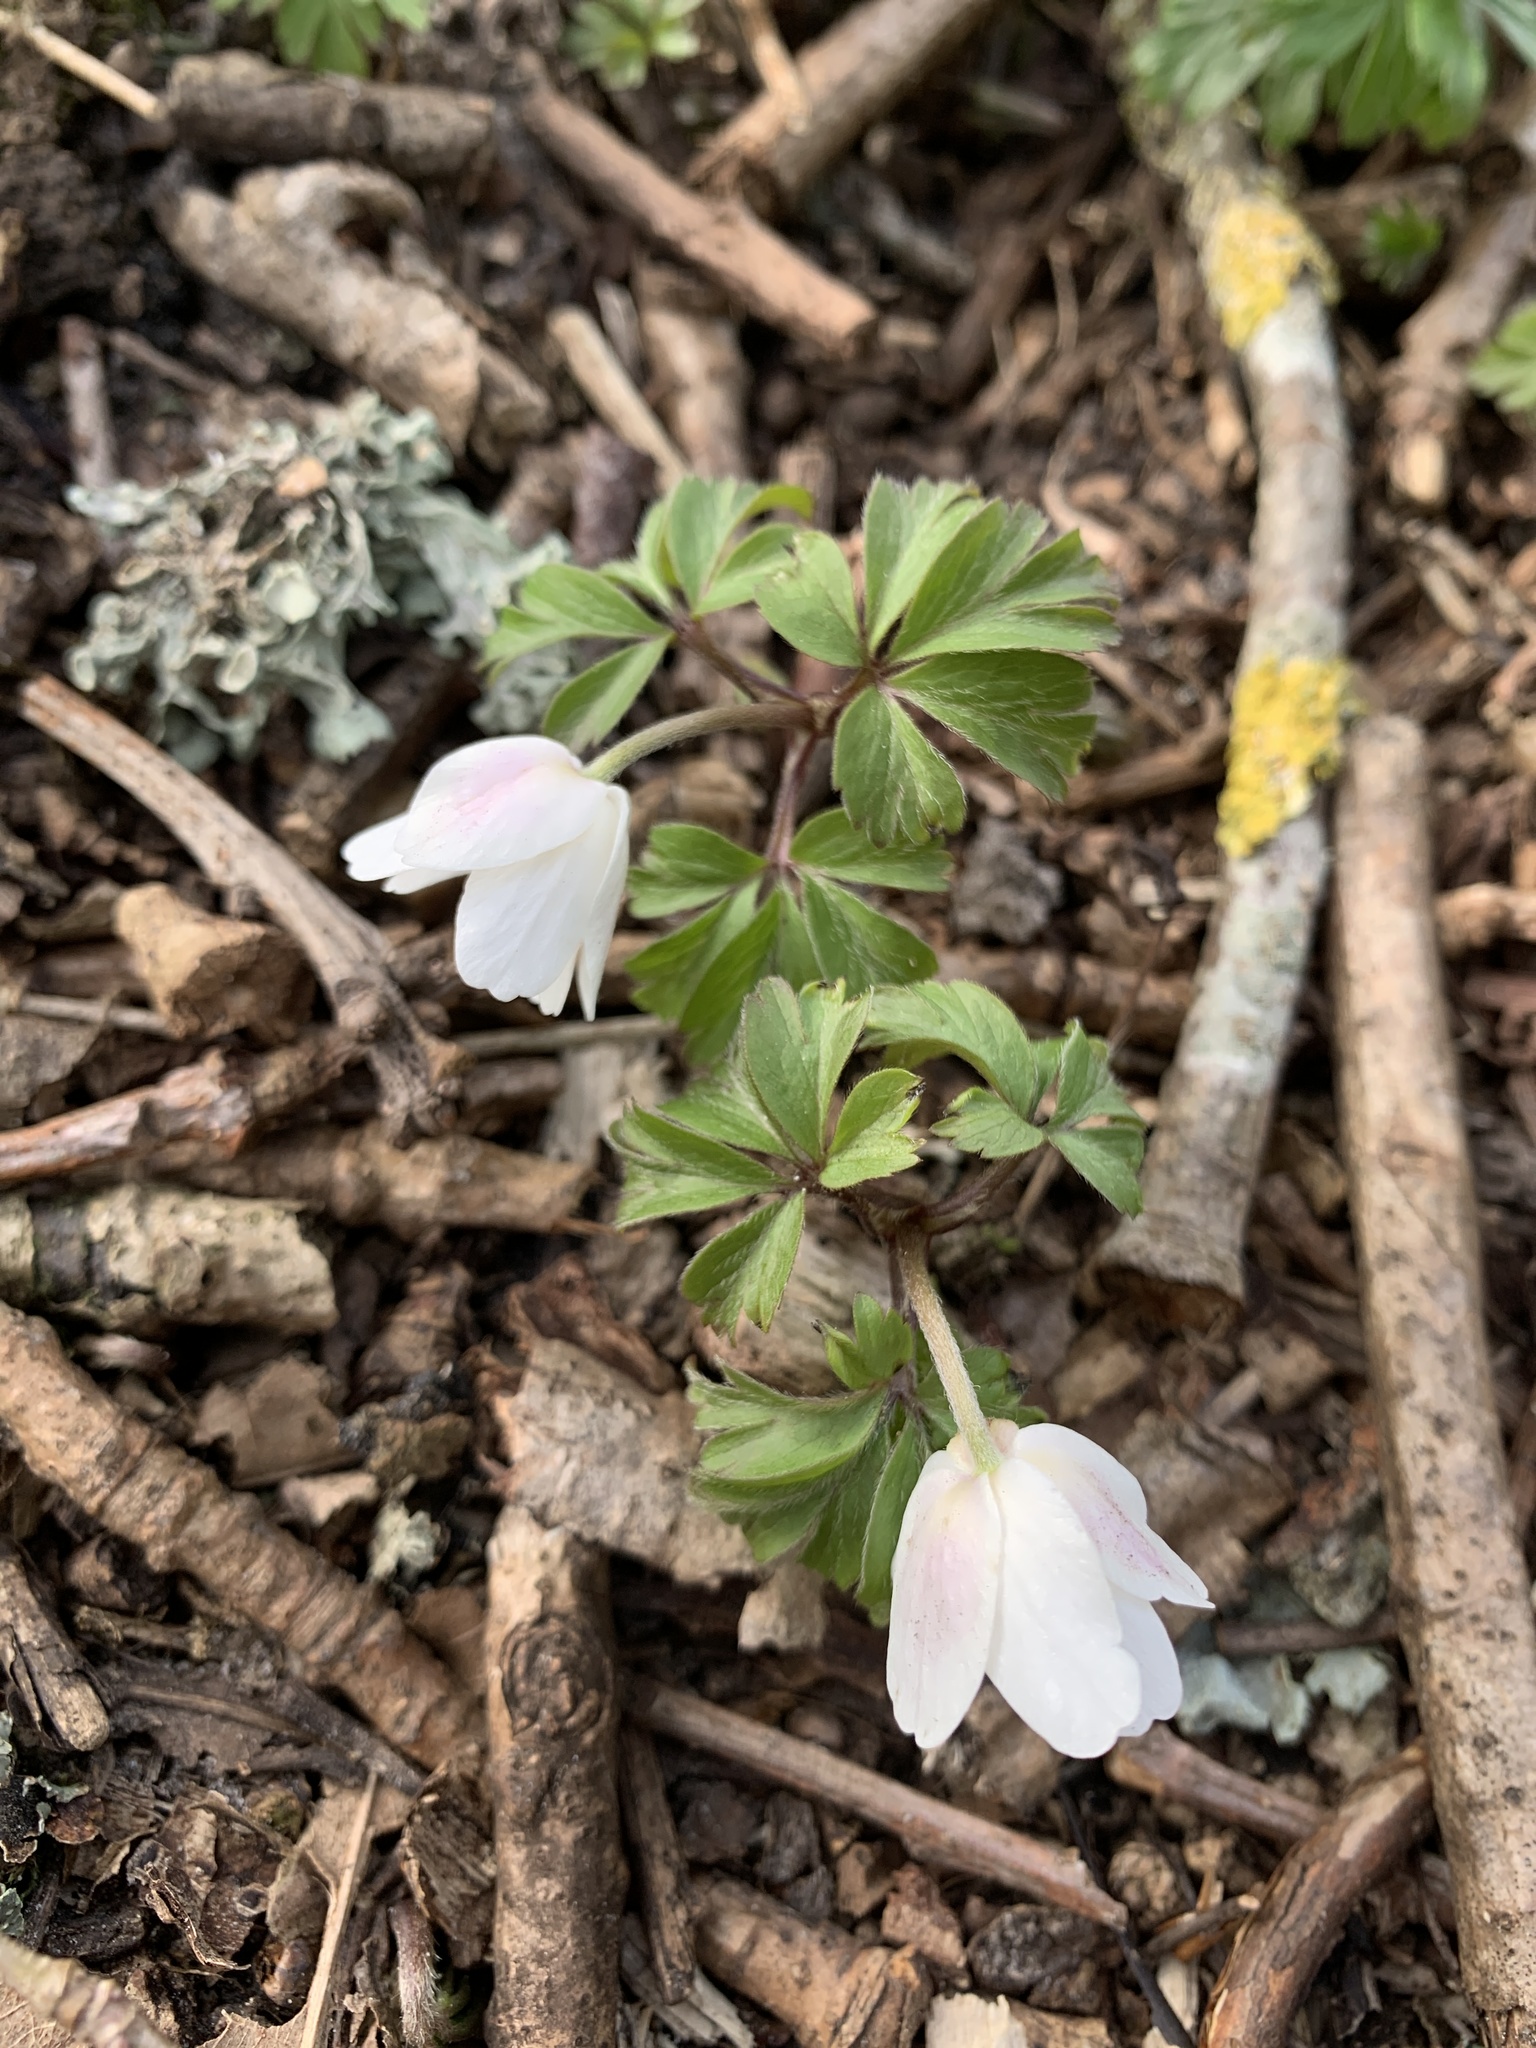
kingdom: Plantae
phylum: Tracheophyta
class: Magnoliopsida
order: Ranunculales
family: Ranunculaceae
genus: Anemone
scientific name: Anemone nemorosa
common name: Wood anemone
